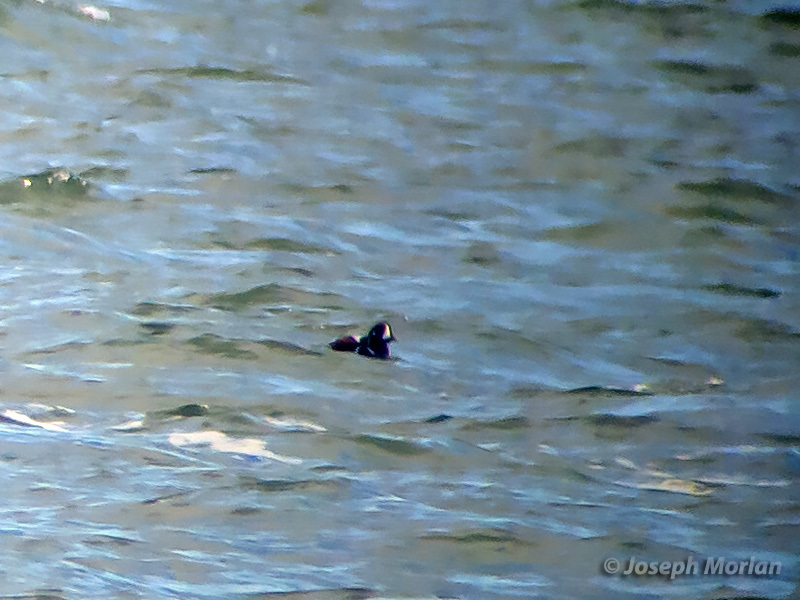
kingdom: Animalia
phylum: Chordata
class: Aves
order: Anseriformes
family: Anatidae
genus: Histrionicus
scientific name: Histrionicus histrionicus
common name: Harlequin duck
